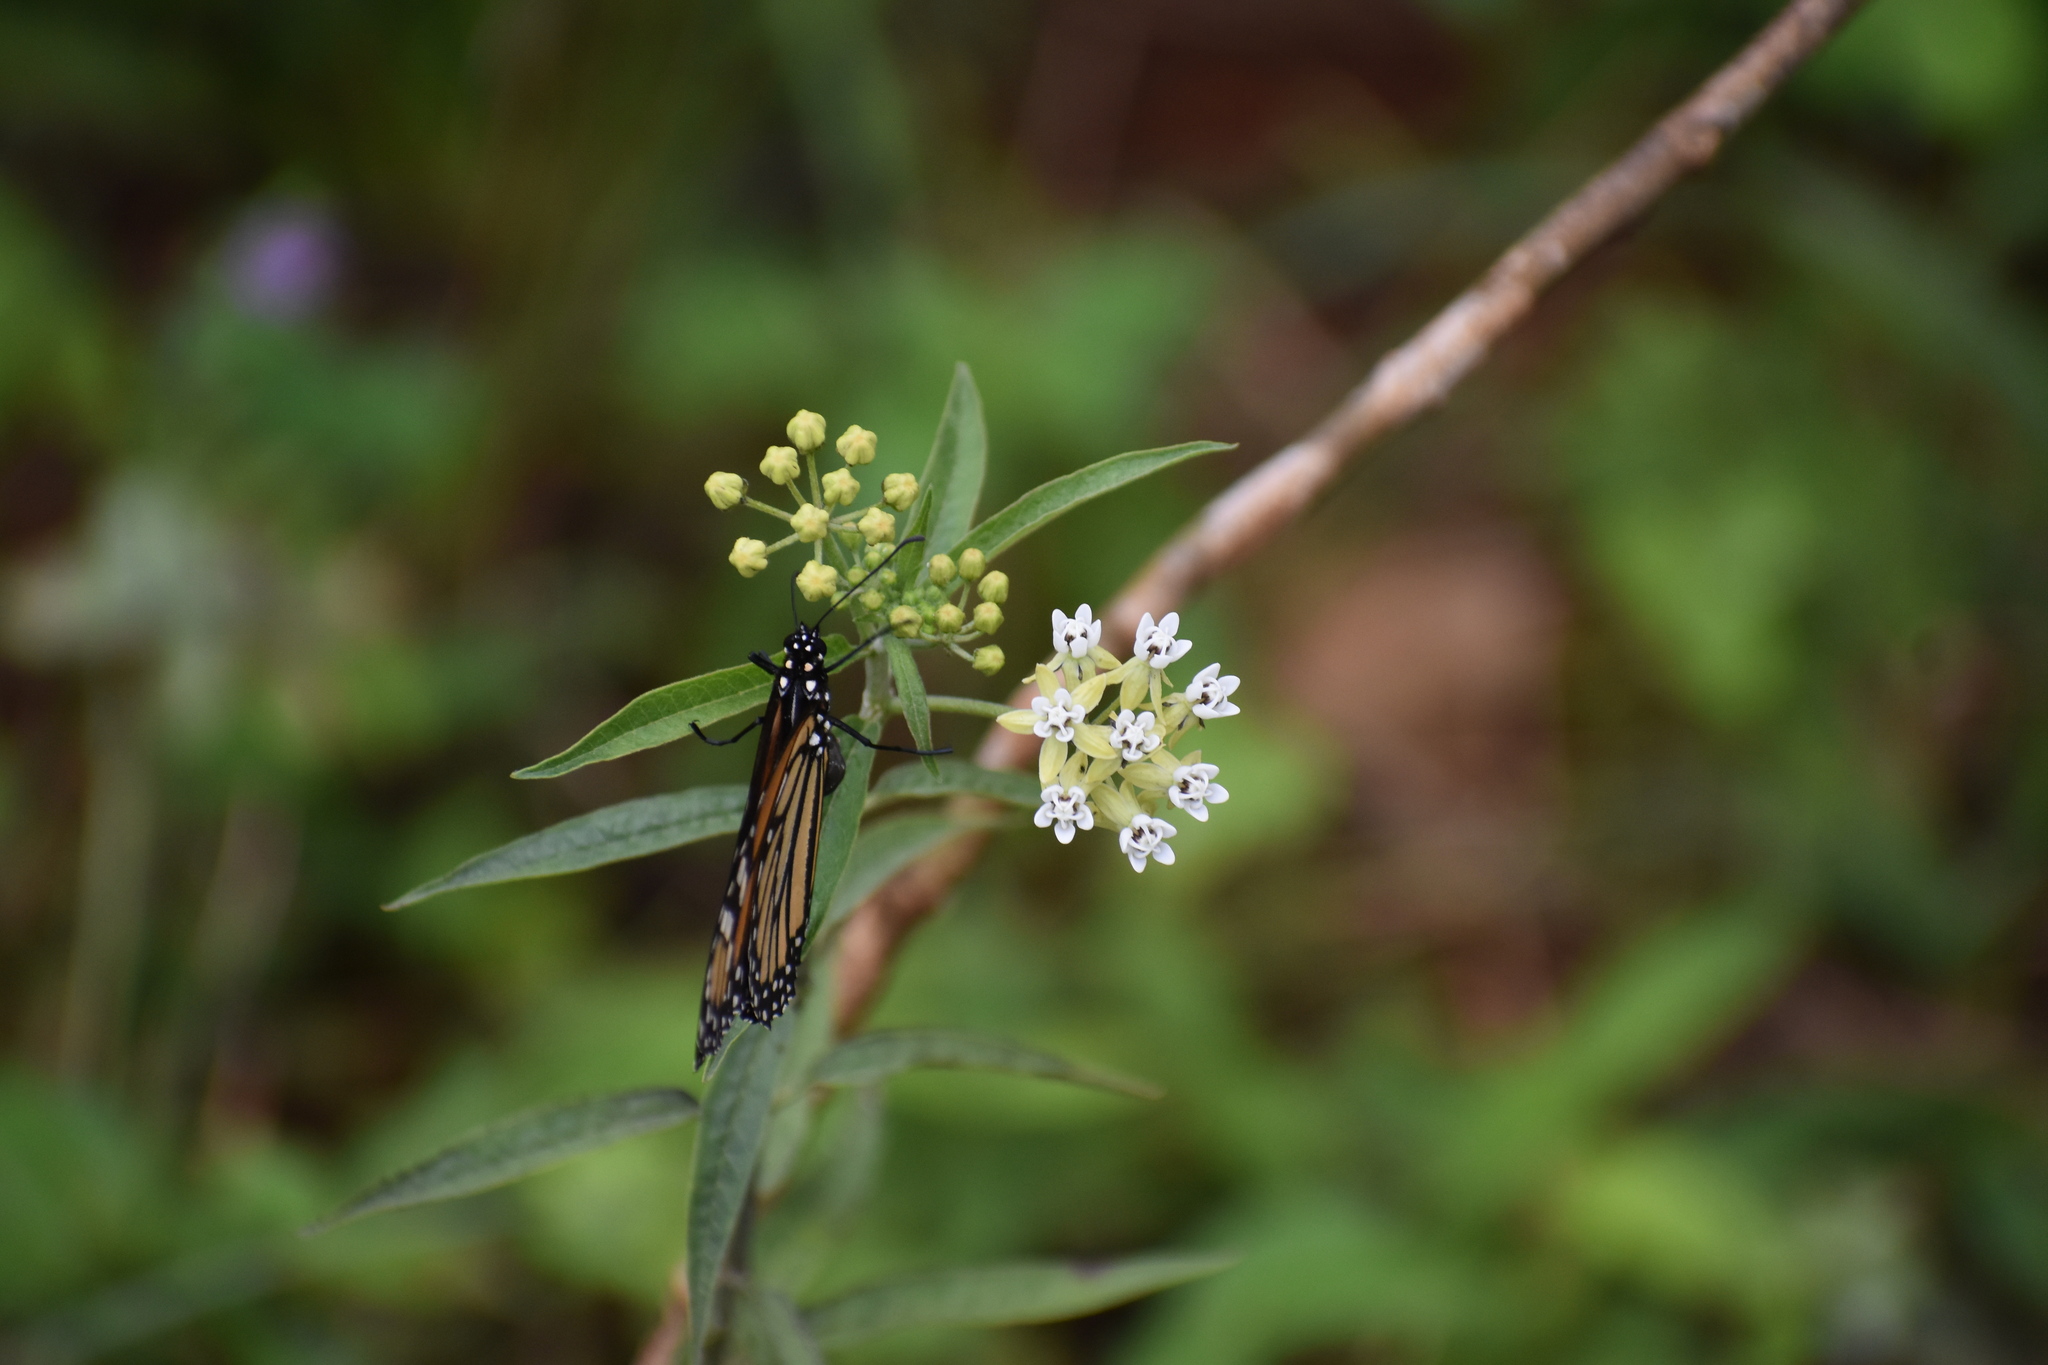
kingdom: Animalia
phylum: Arthropoda
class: Insecta
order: Lepidoptera
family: Nymphalidae
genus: Danaus
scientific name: Danaus plexippus
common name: Monarch
